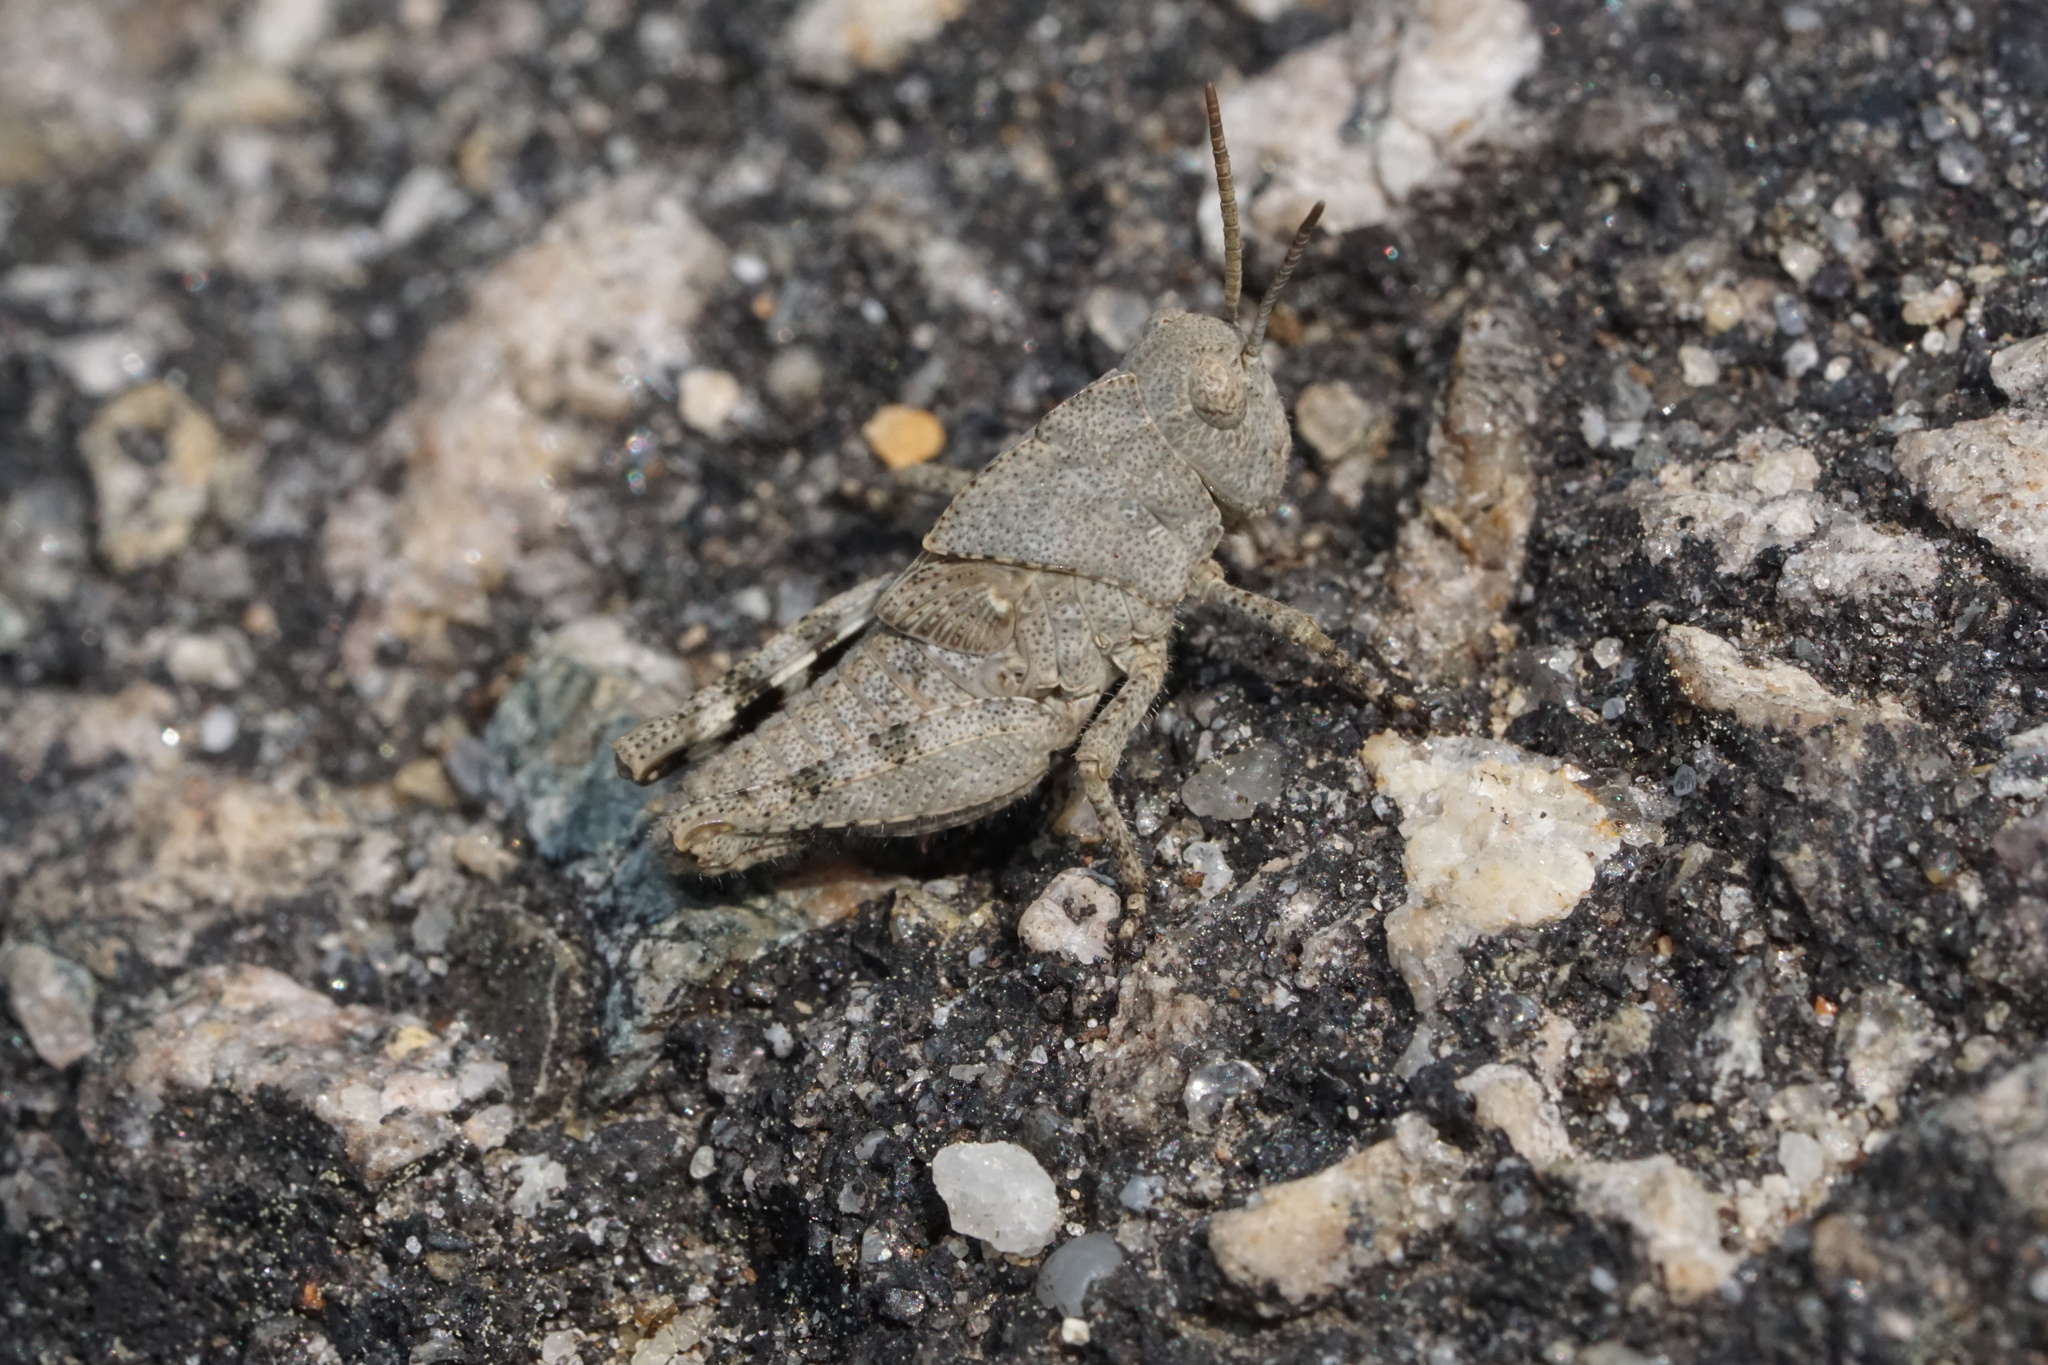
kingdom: Animalia
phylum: Arthropoda
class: Insecta
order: Orthoptera
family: Acrididae
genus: Dissosteira
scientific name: Dissosteira carolina
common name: Carolina grasshopper
